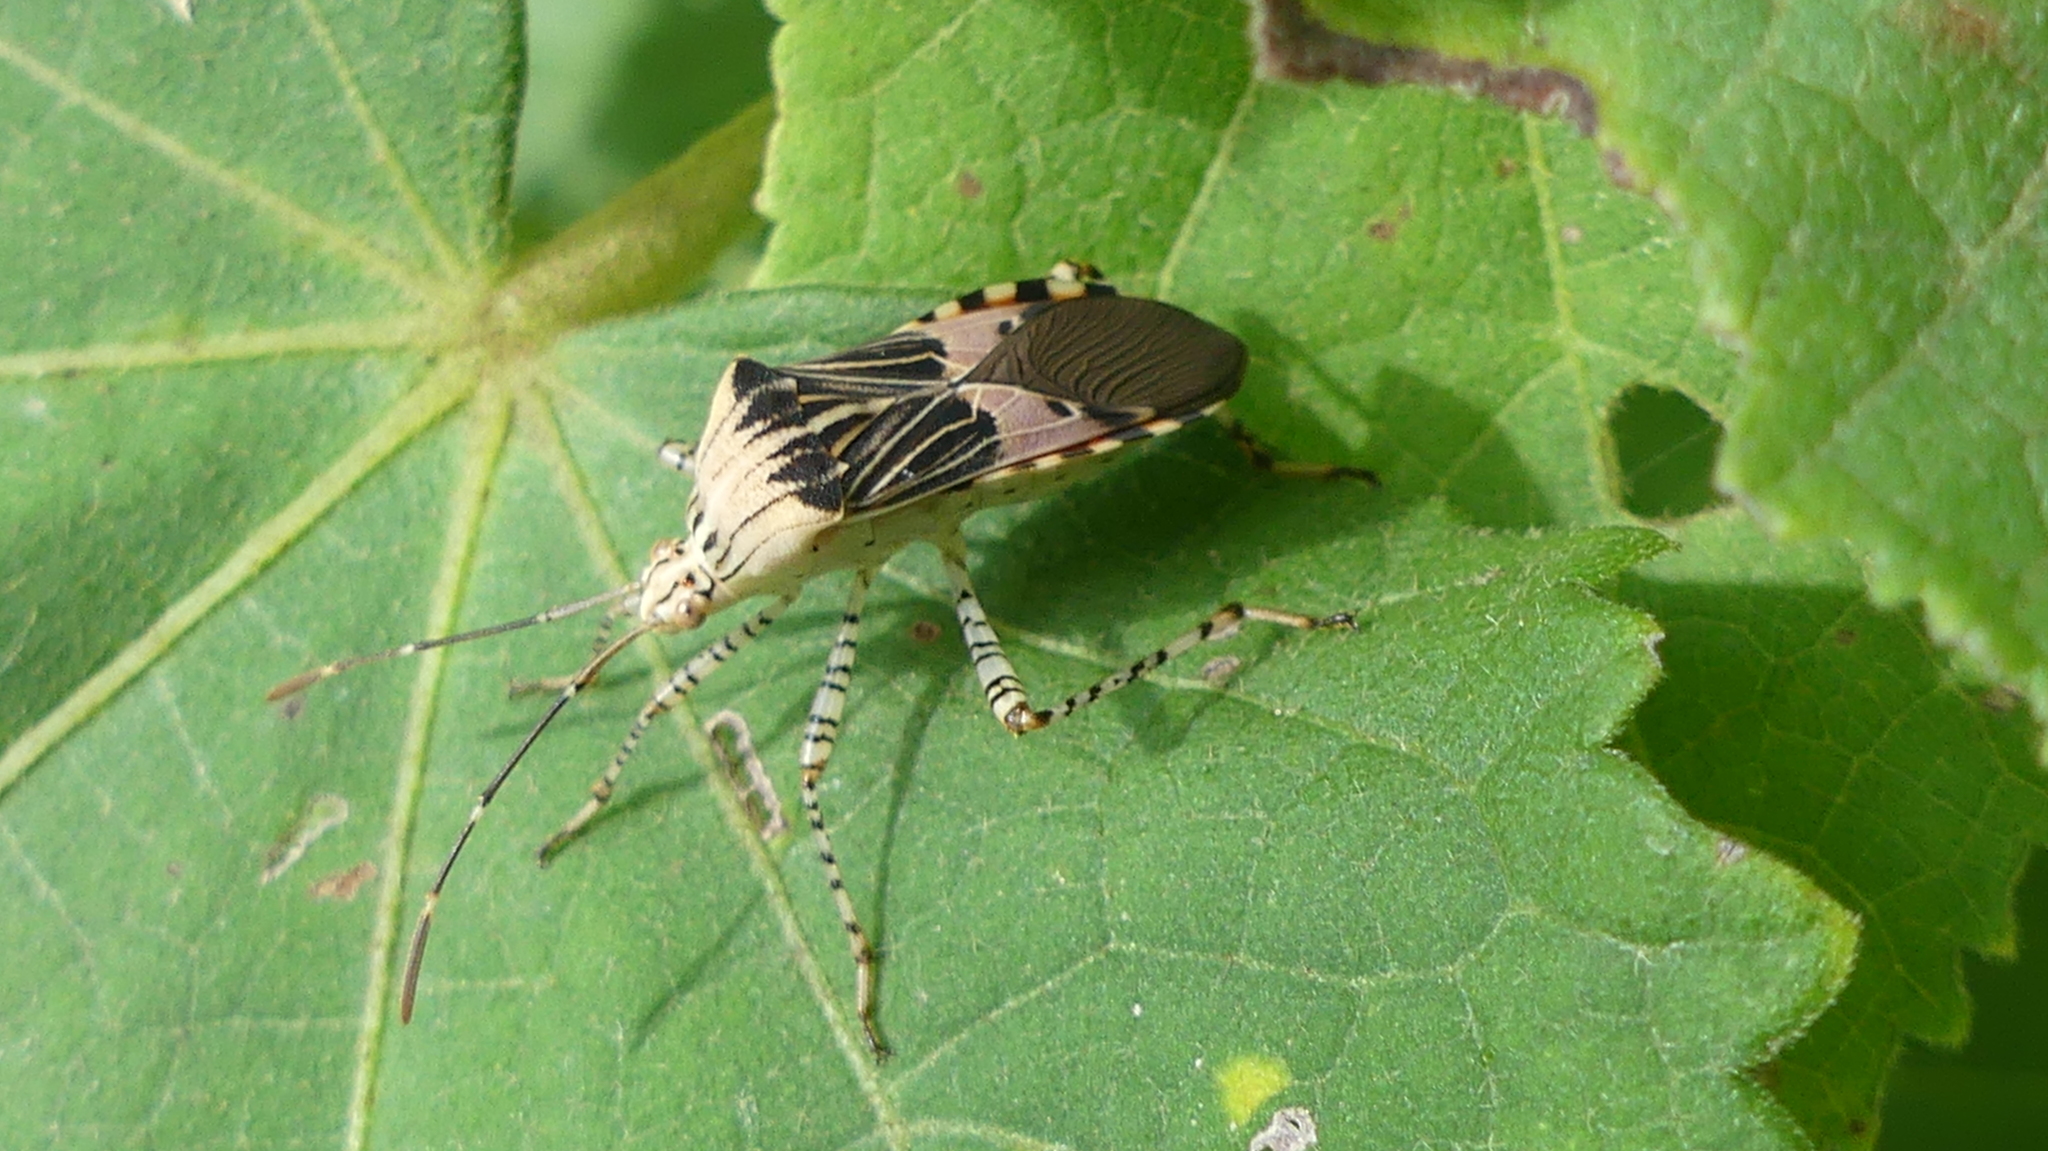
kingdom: Animalia
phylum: Arthropoda
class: Insecta
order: Hemiptera
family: Coreidae
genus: Hypselonotus
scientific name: Hypselonotus punctiventris
